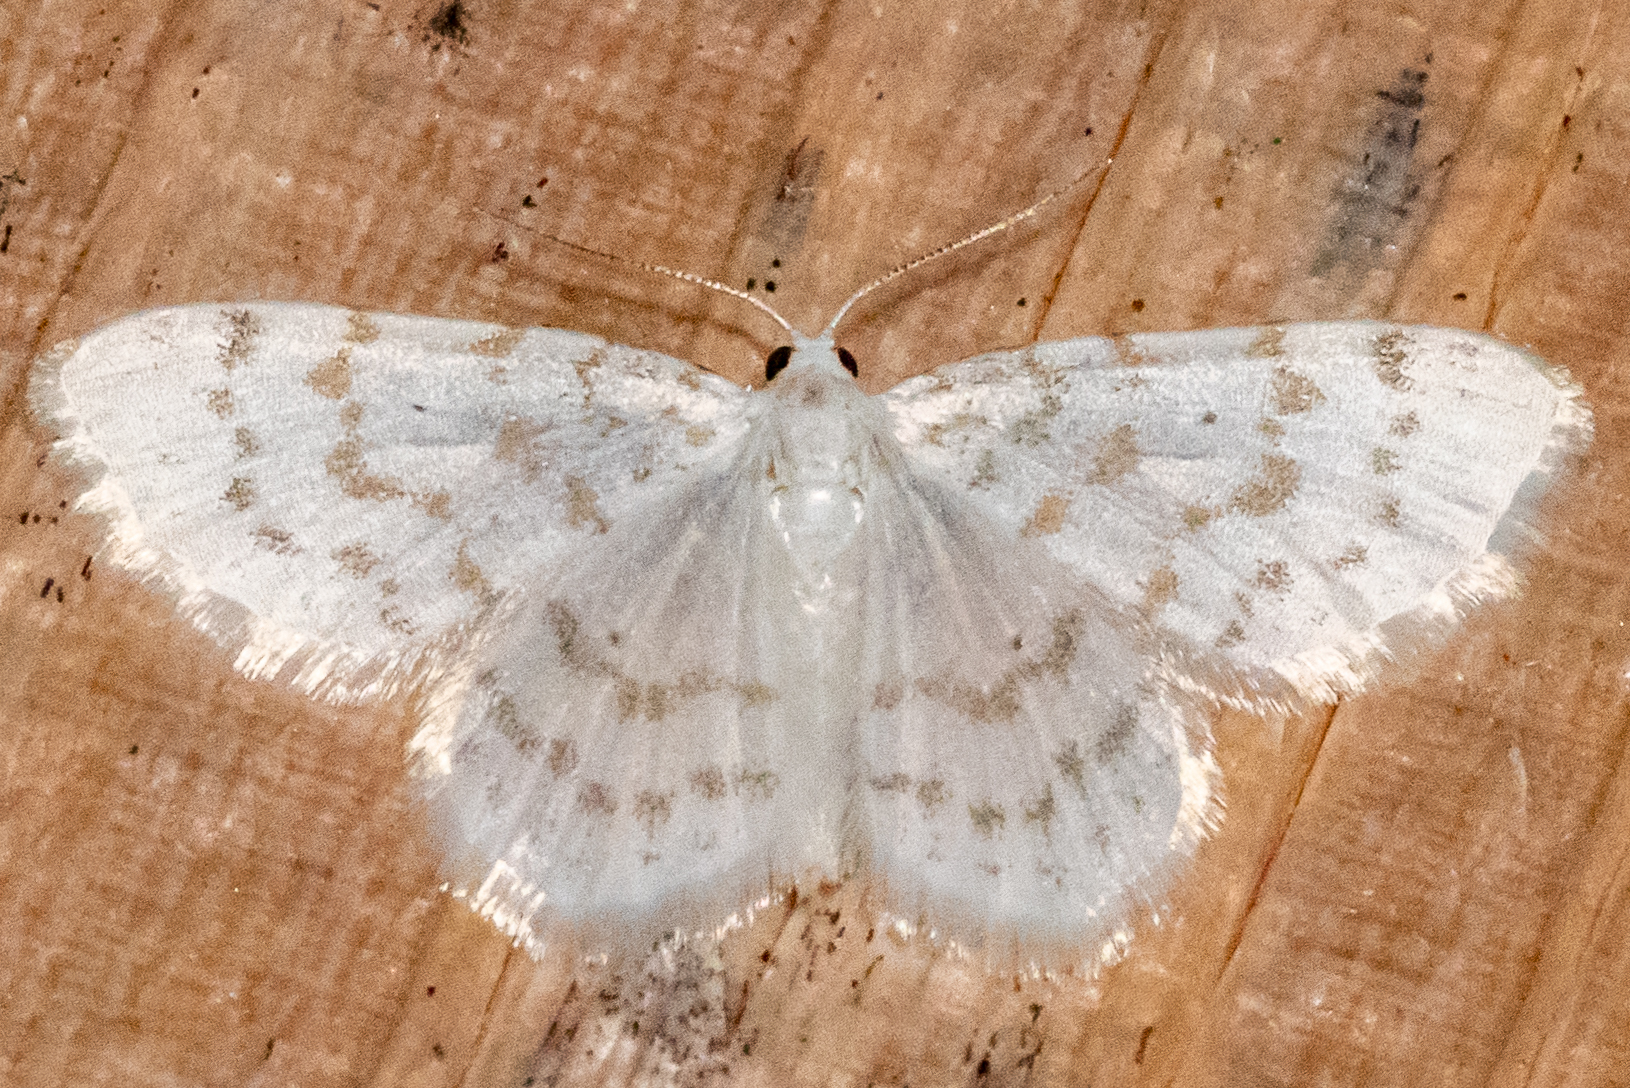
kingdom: Animalia
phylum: Arthropoda
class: Insecta
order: Lepidoptera
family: Geometridae
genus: Hydrelia
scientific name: Hydrelia albifera
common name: Fragile white carpet
